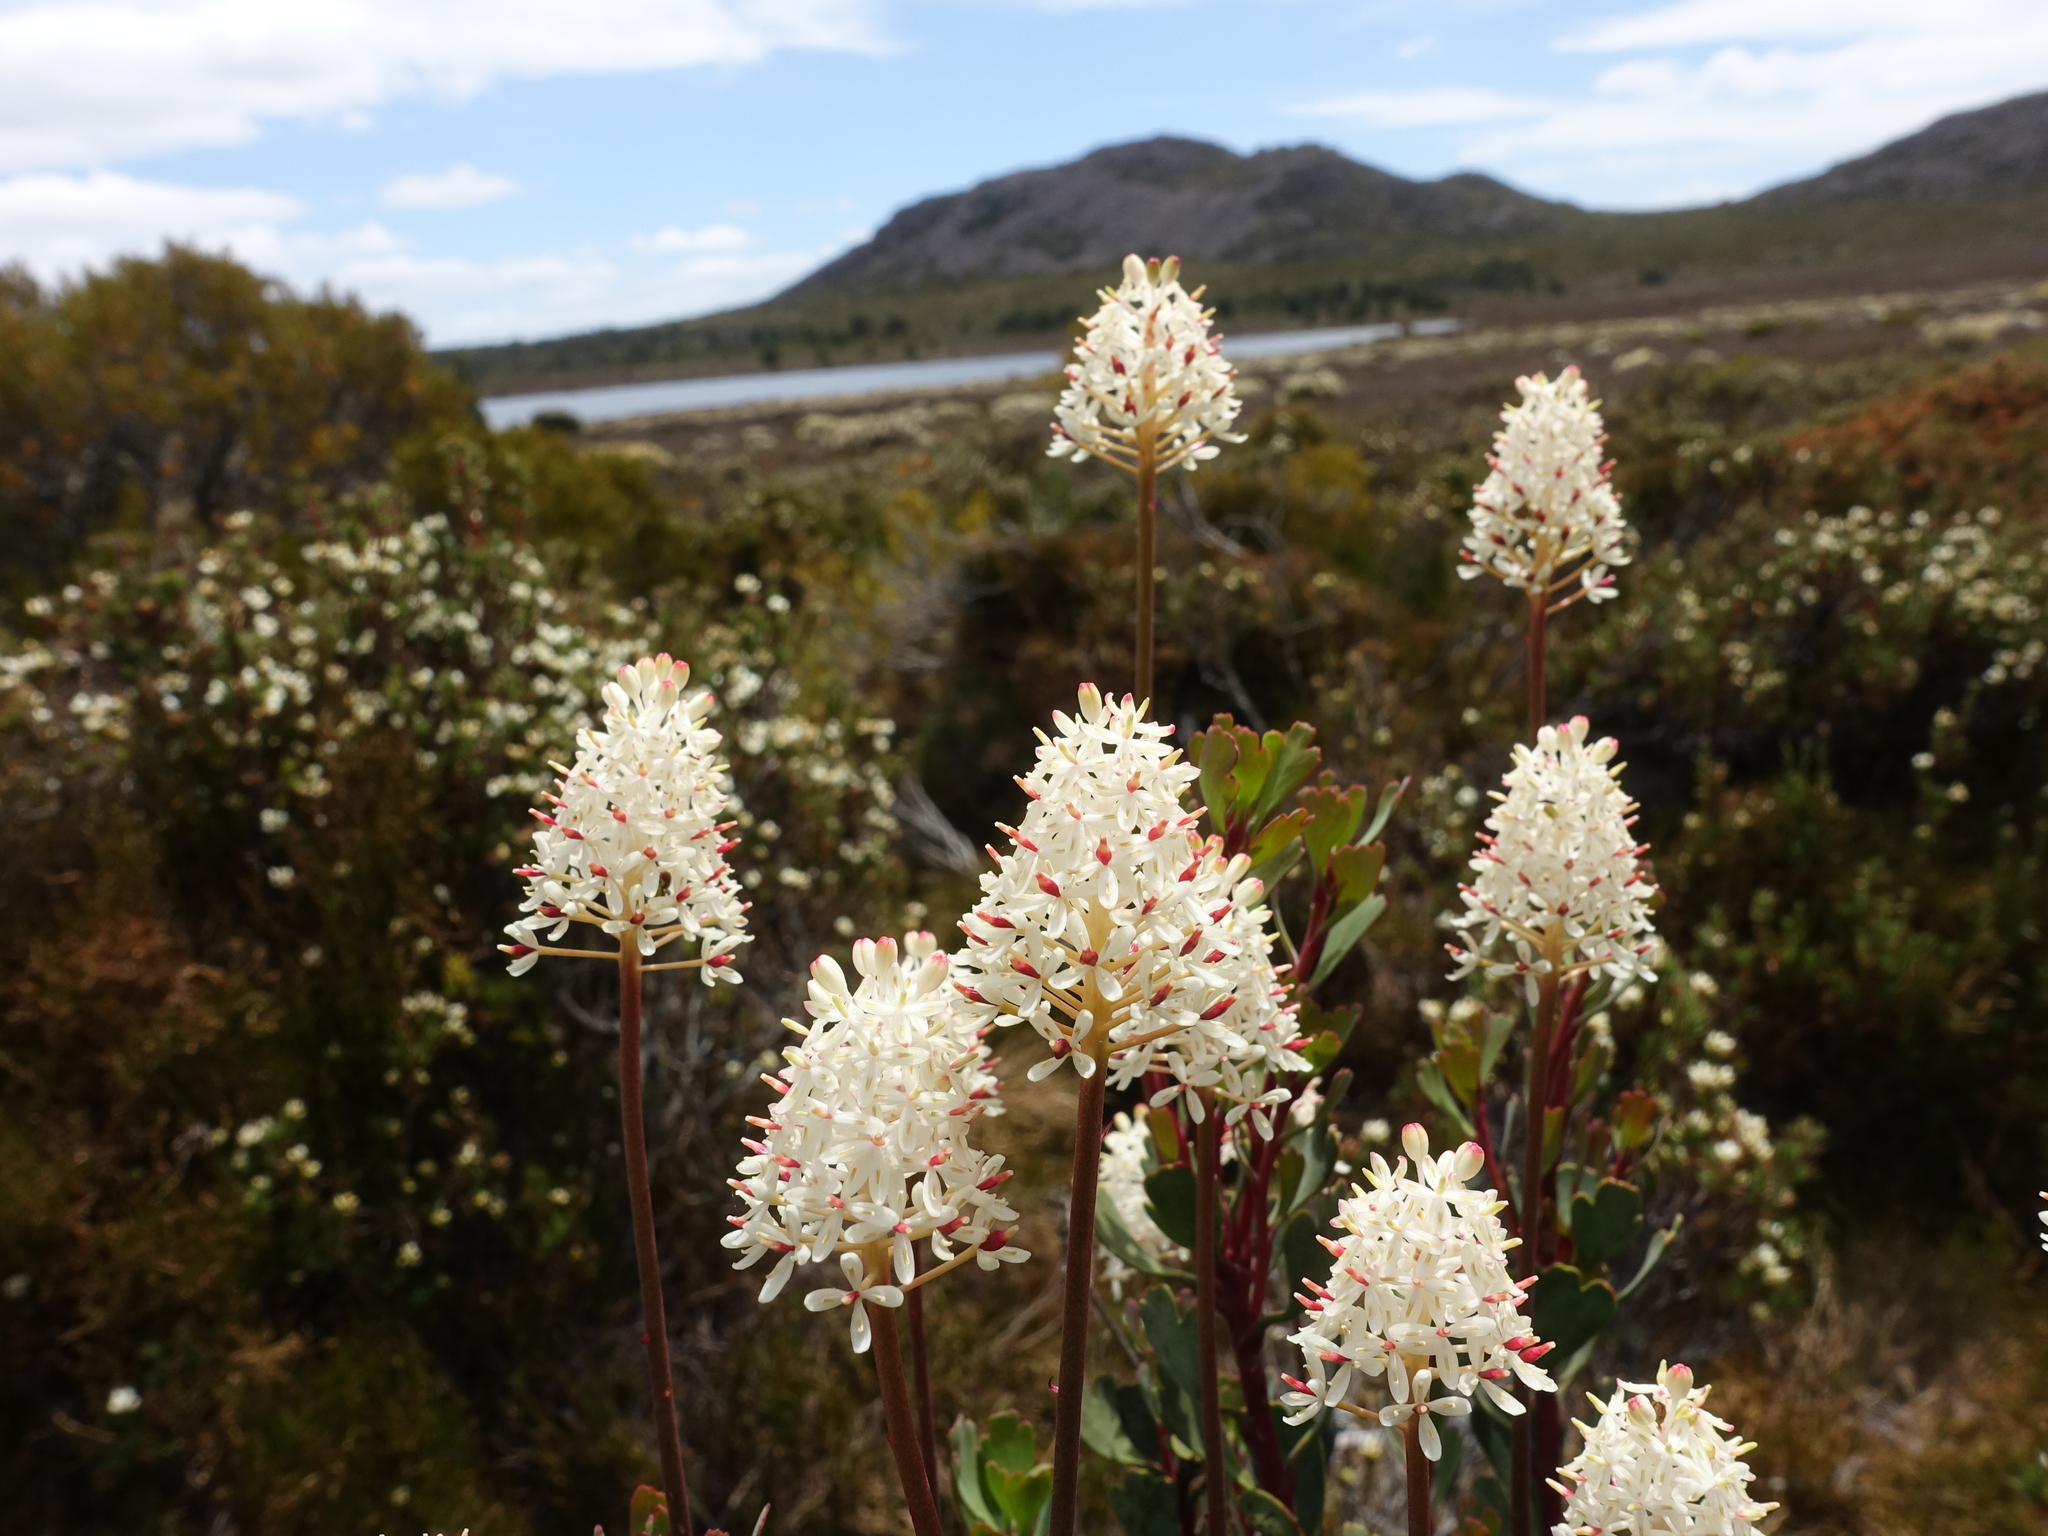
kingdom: Plantae
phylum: Tracheophyta
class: Magnoliopsida
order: Proteales
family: Proteaceae
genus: Bellendena
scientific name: Bellendena montana
